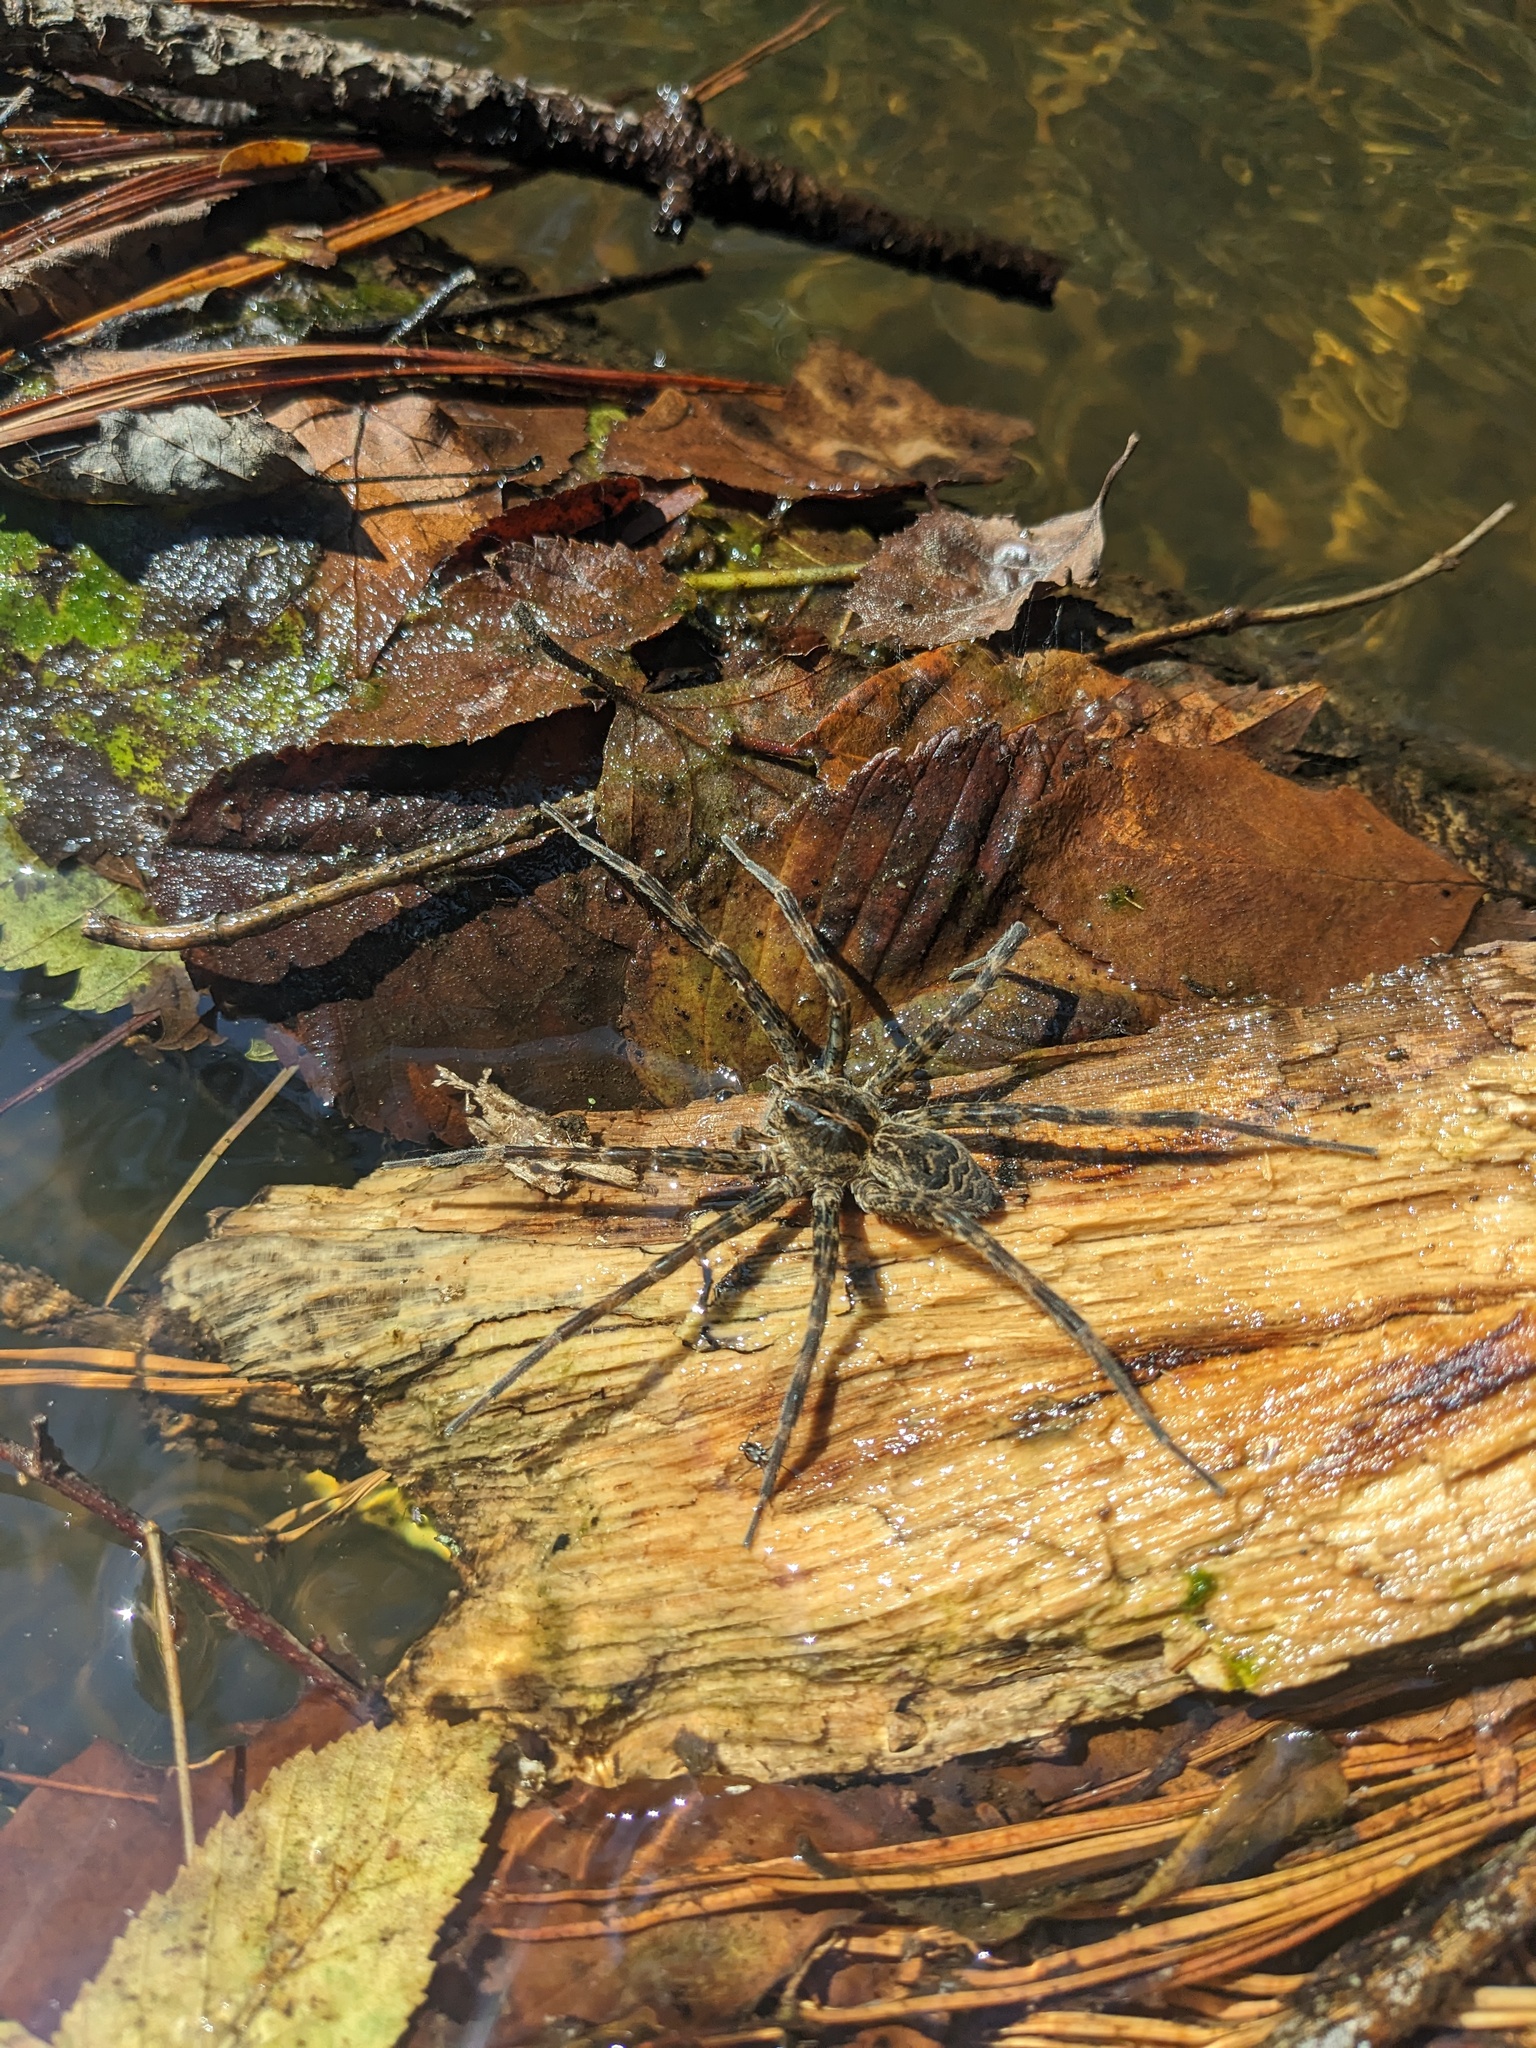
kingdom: Animalia
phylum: Arthropoda
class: Arachnida
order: Araneae
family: Pisauridae
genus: Dolomedes
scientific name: Dolomedes scriptus
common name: Striped fishing spider
